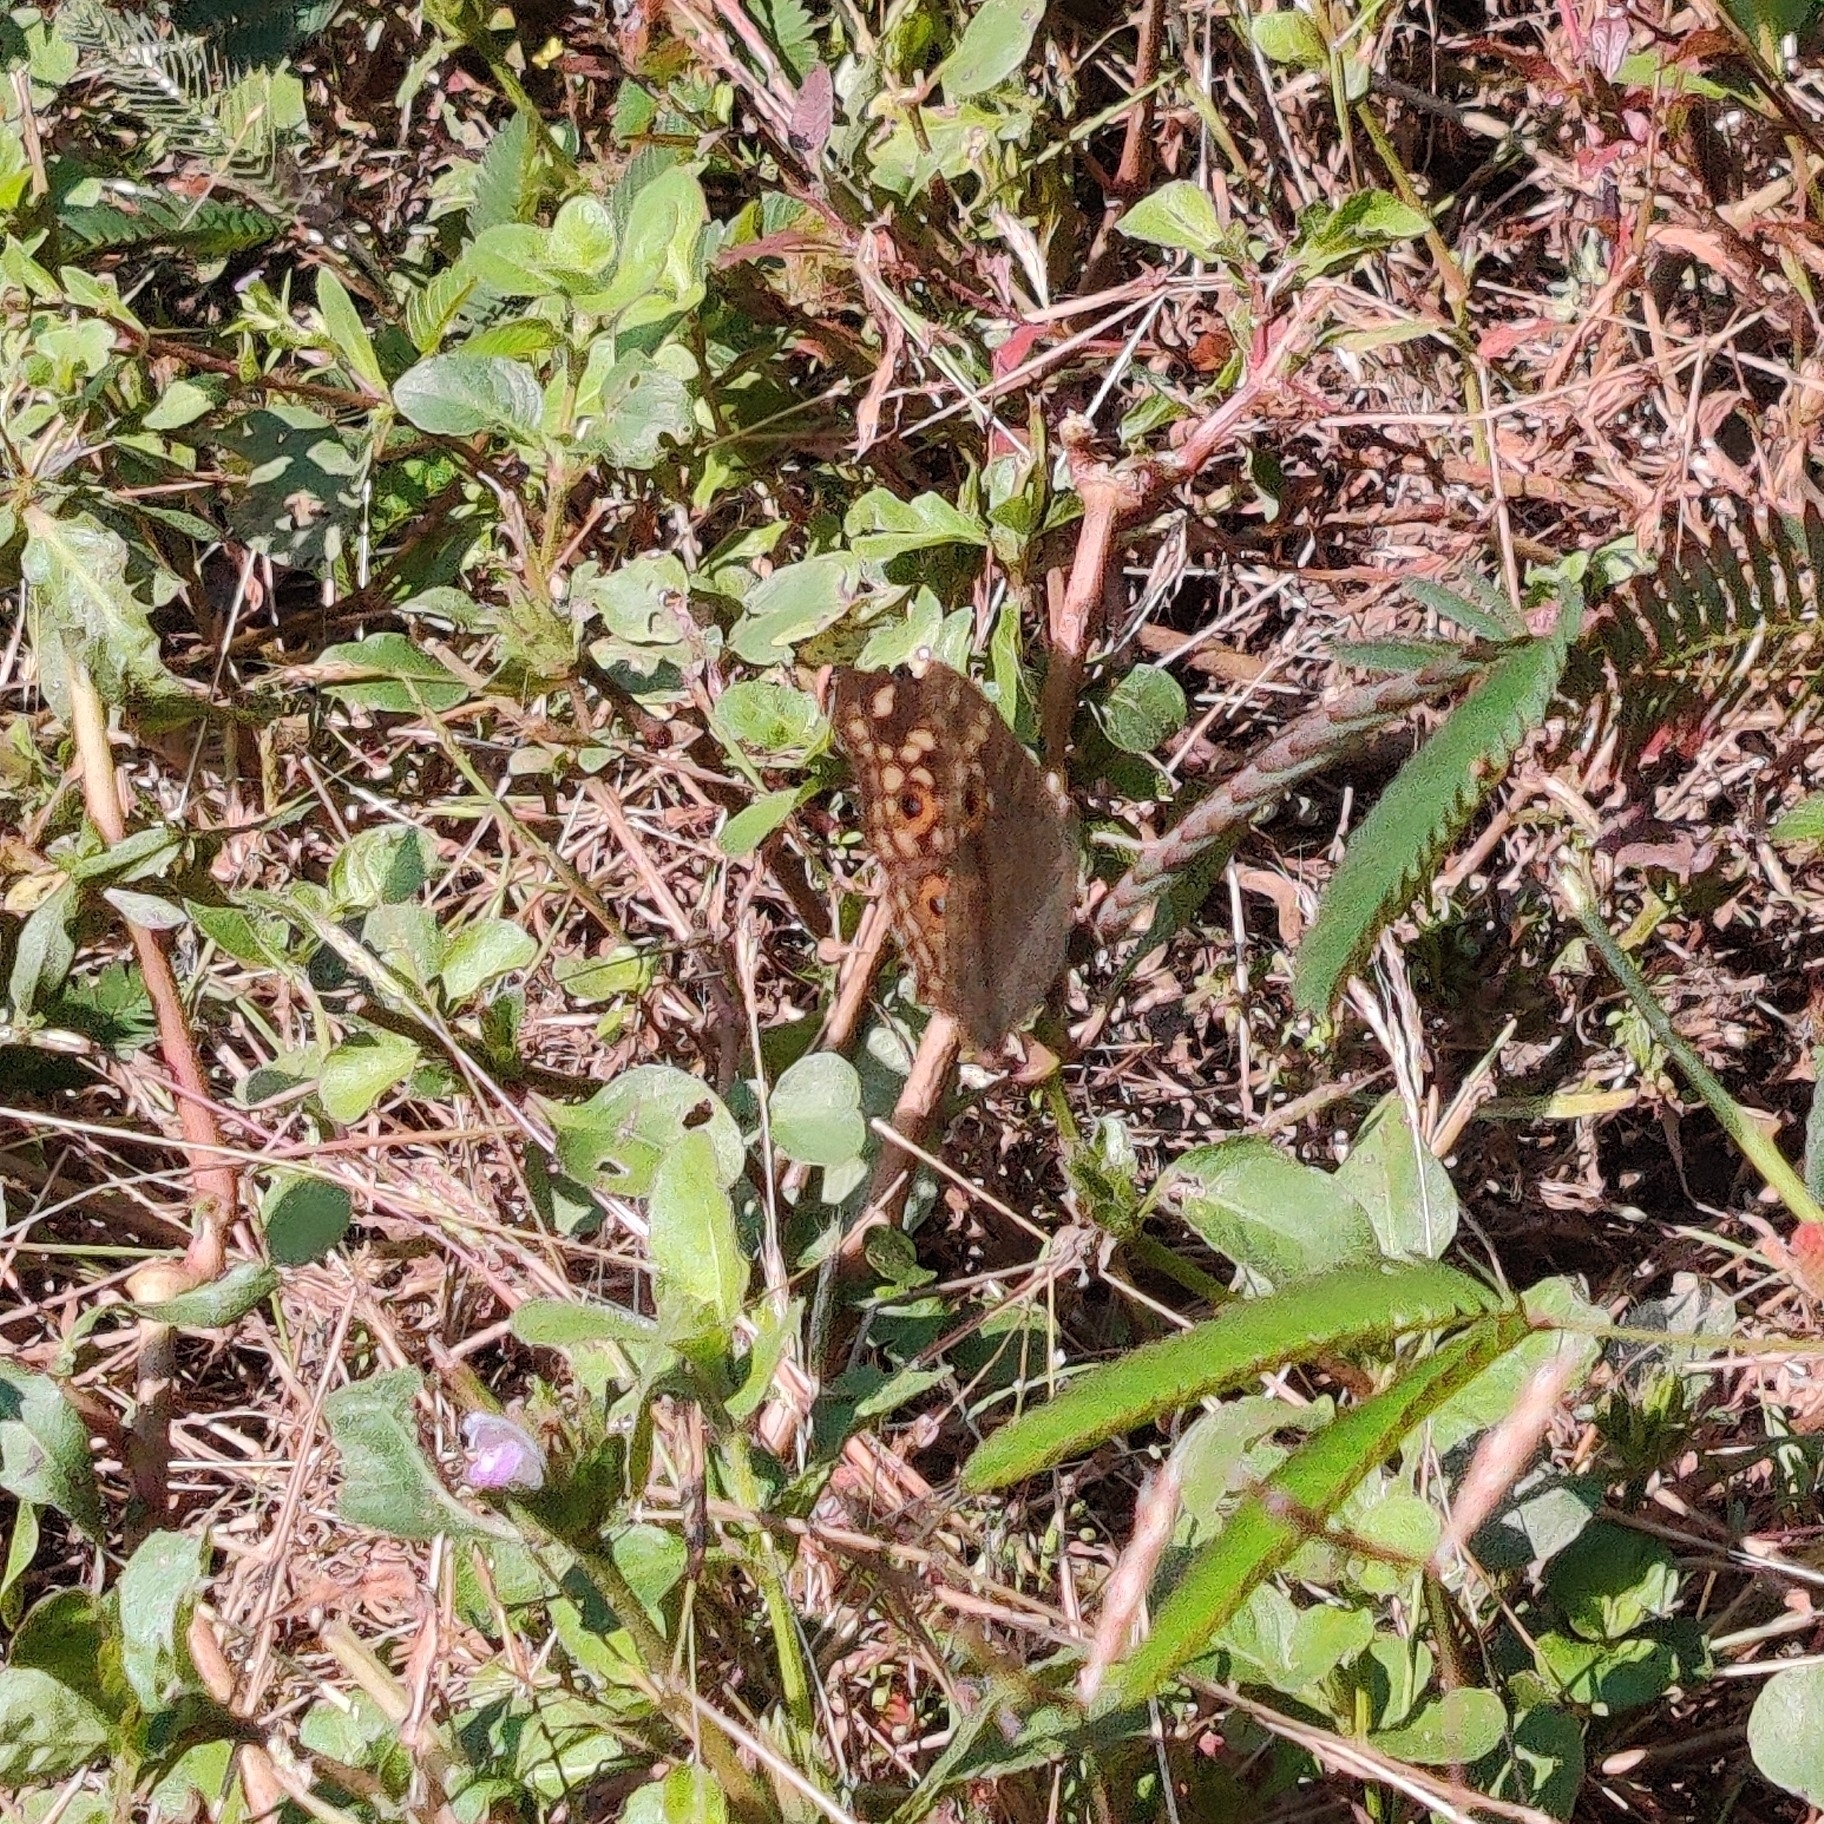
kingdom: Animalia
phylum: Arthropoda
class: Insecta
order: Lepidoptera
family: Nymphalidae
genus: Junonia
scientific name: Junonia lemonias
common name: Lemon pansy
